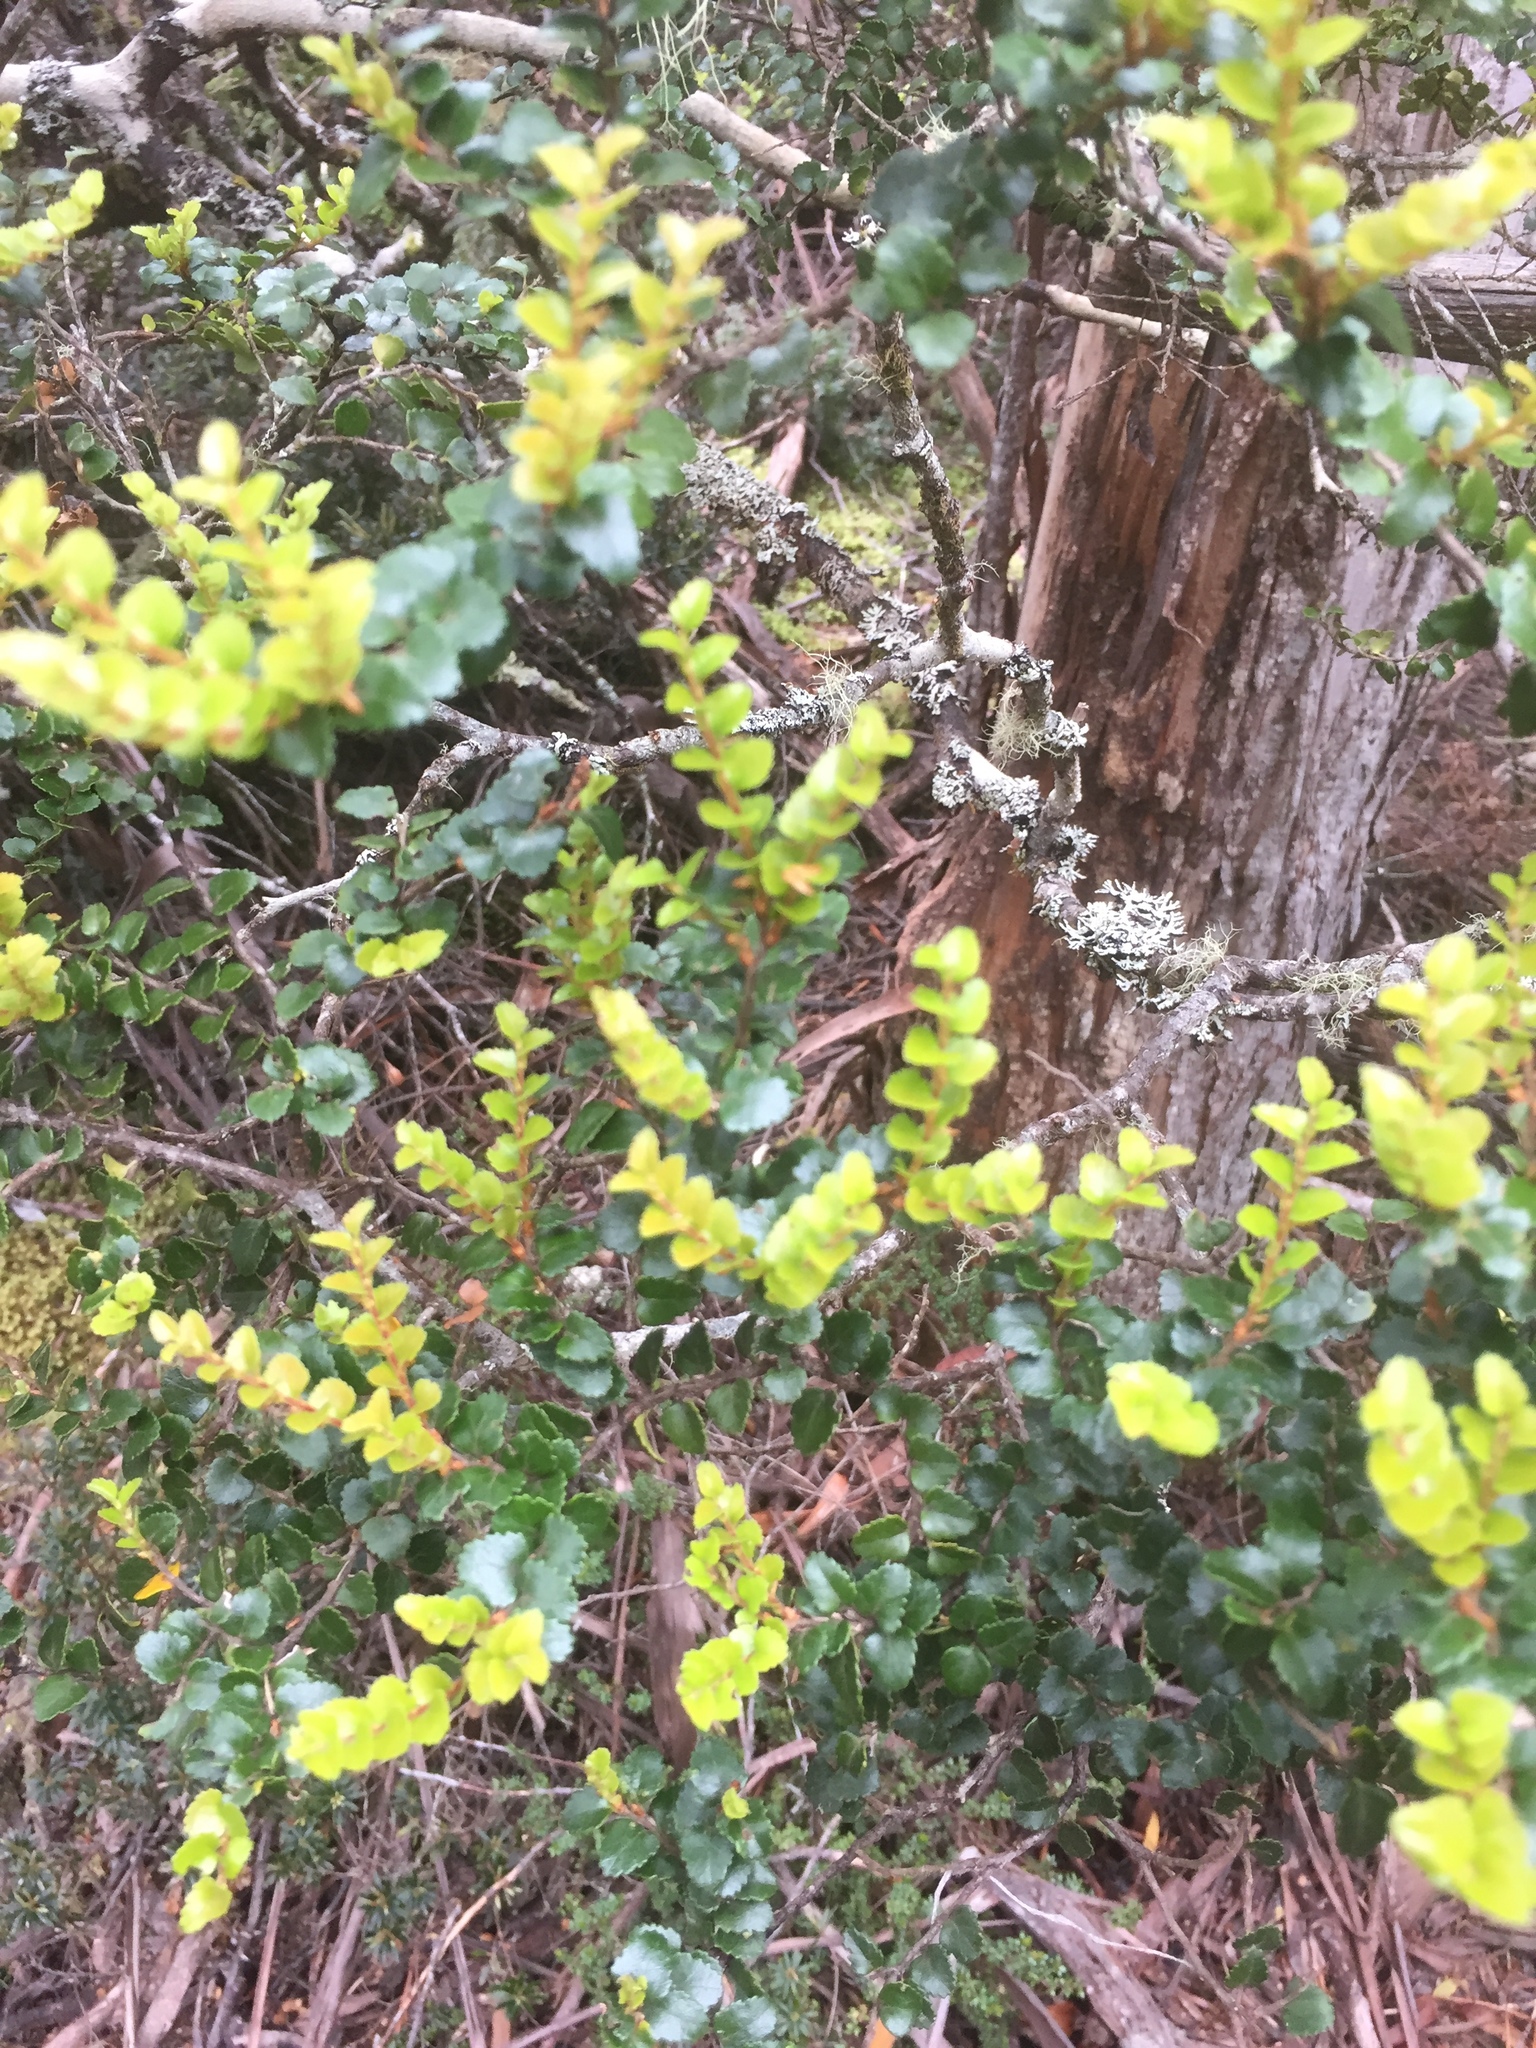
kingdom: Plantae
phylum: Tracheophyta
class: Magnoliopsida
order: Fagales
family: Nothofagaceae
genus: Nothofagus
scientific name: Nothofagus gunnii
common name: Tanglefoot
